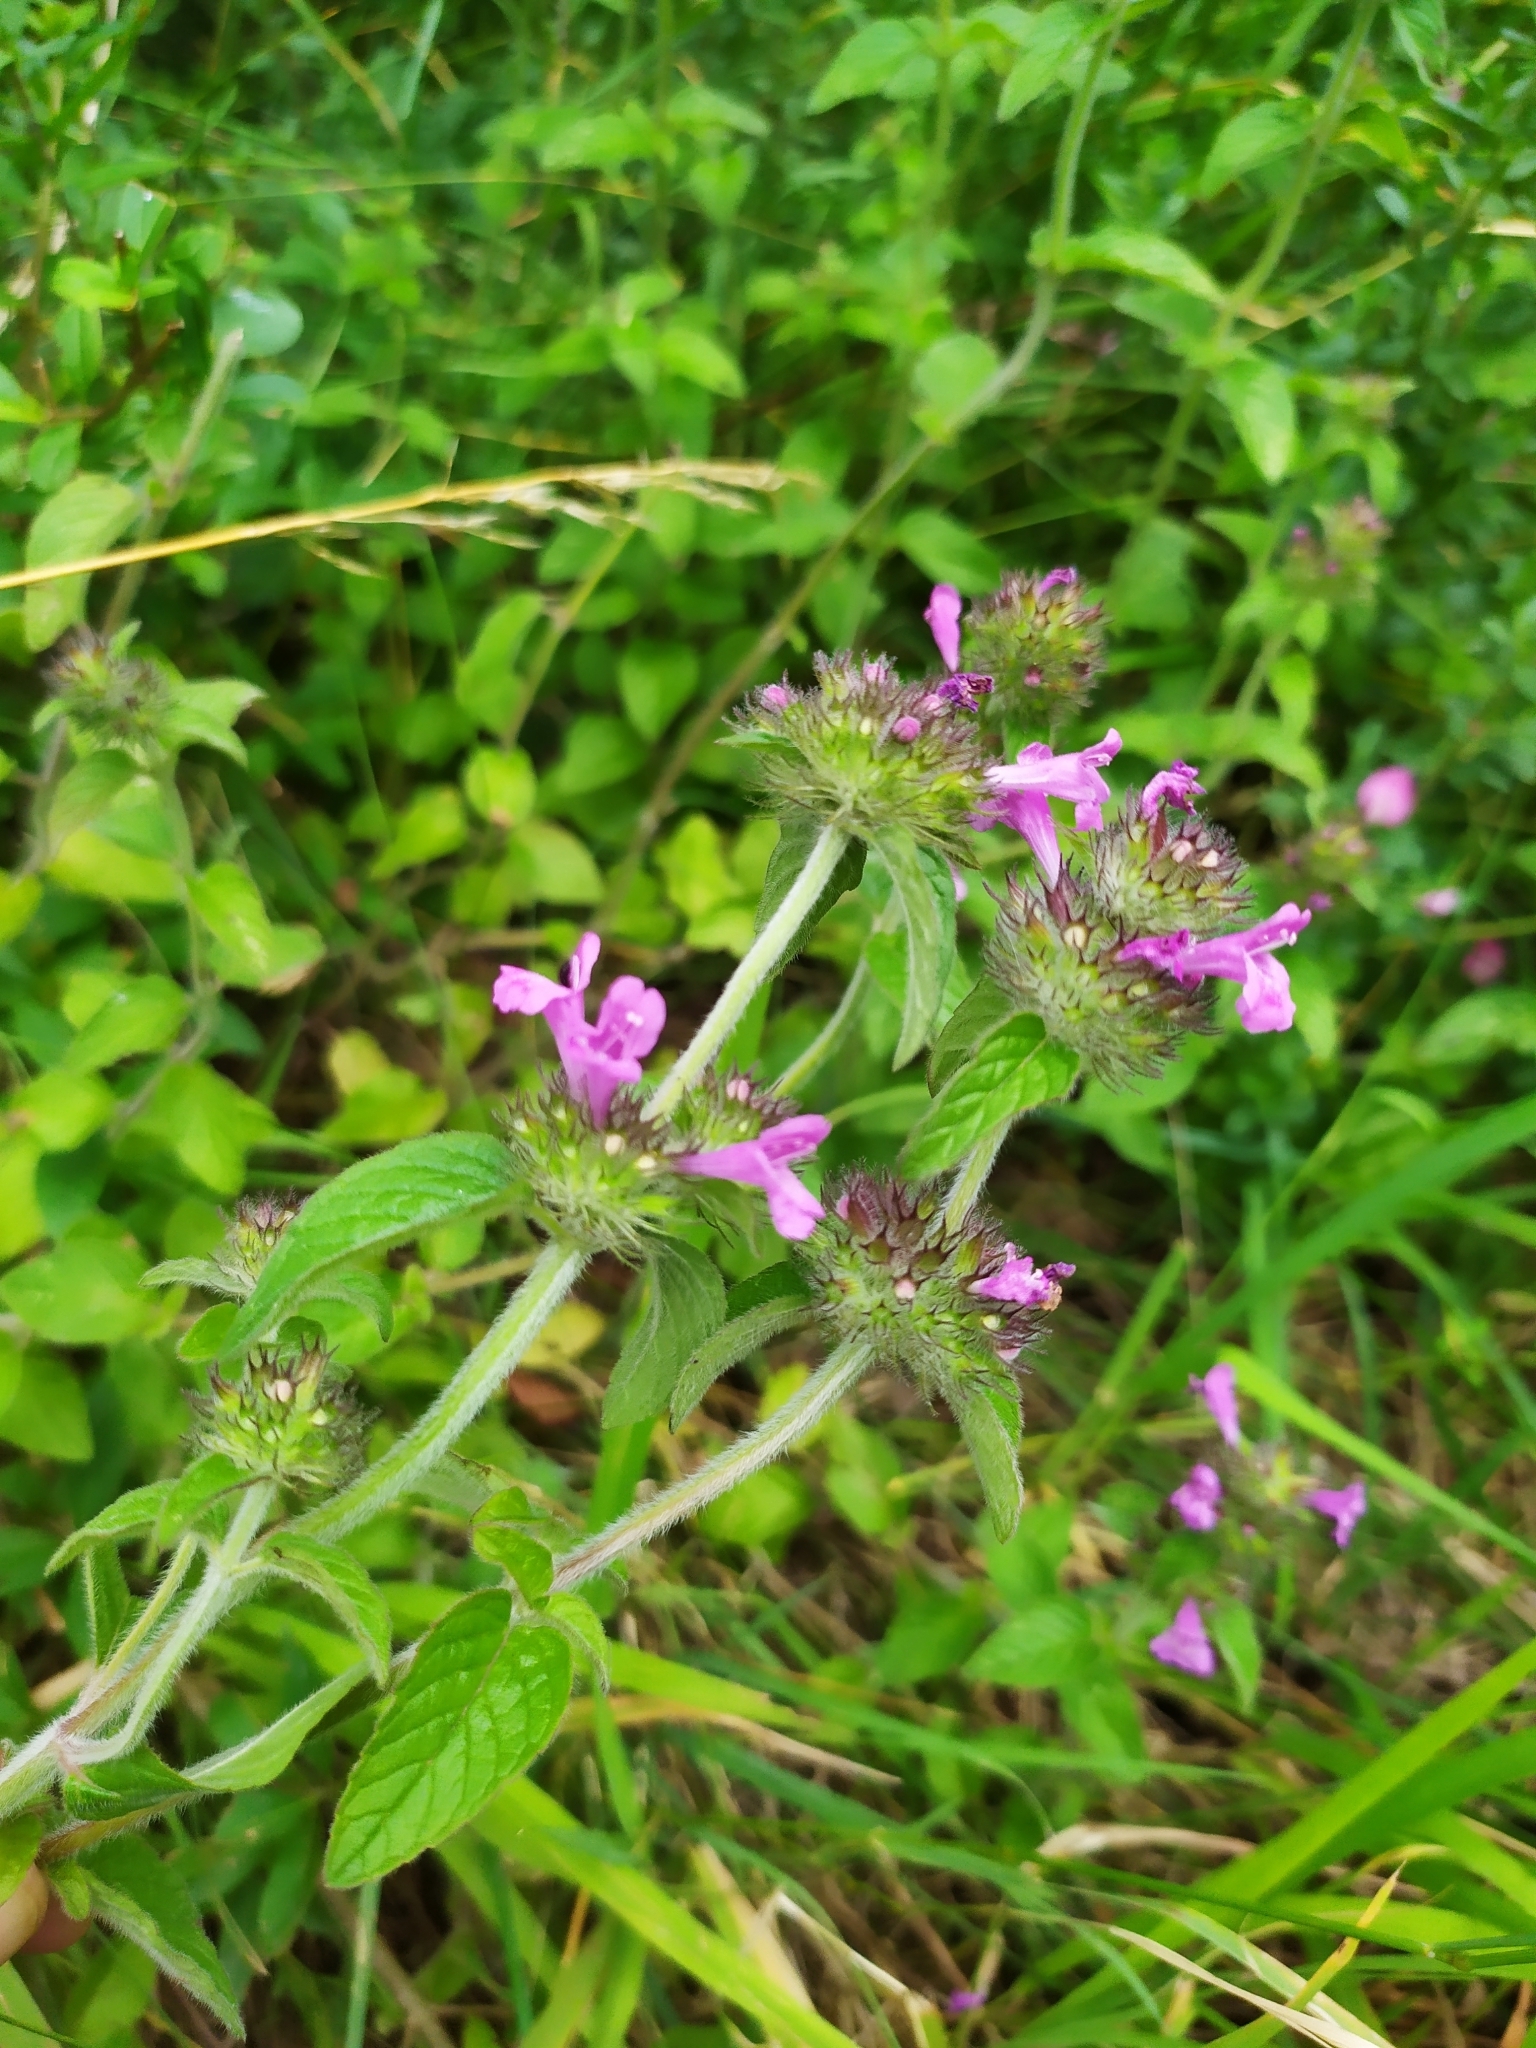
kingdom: Plantae
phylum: Tracheophyta
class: Magnoliopsida
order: Lamiales
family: Lamiaceae
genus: Clinopodium
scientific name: Clinopodium vulgare
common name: Wild basil
